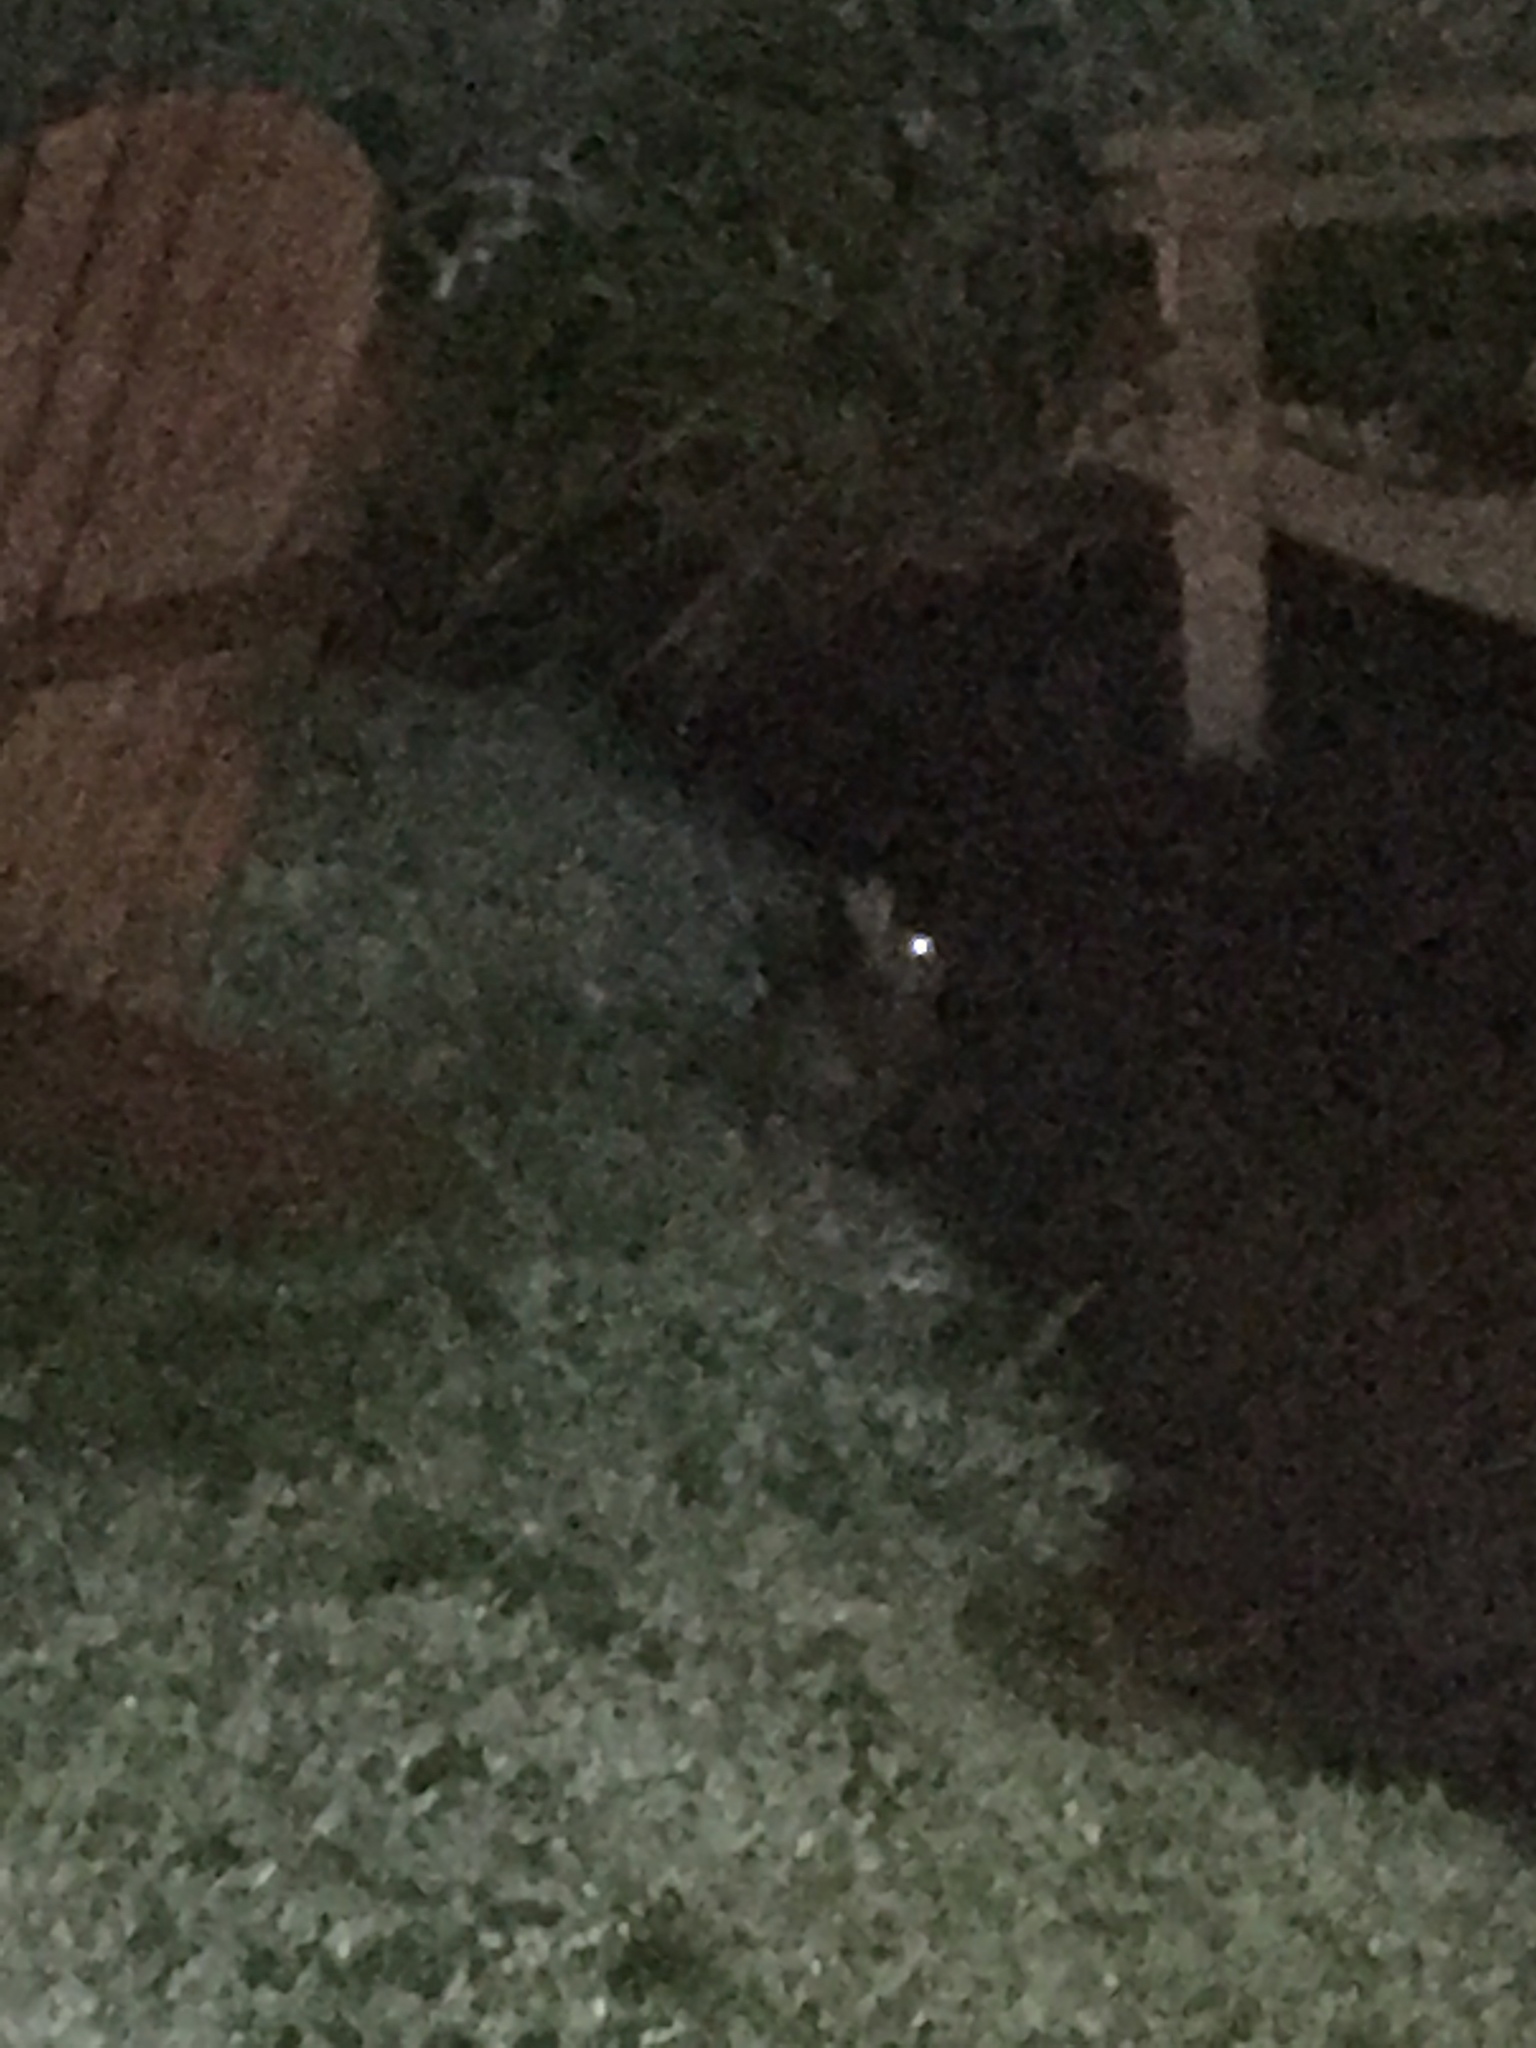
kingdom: Animalia
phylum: Chordata
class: Mammalia
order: Lagomorpha
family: Leporidae
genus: Sylvilagus
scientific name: Sylvilagus floridanus
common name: Eastern cottontail
